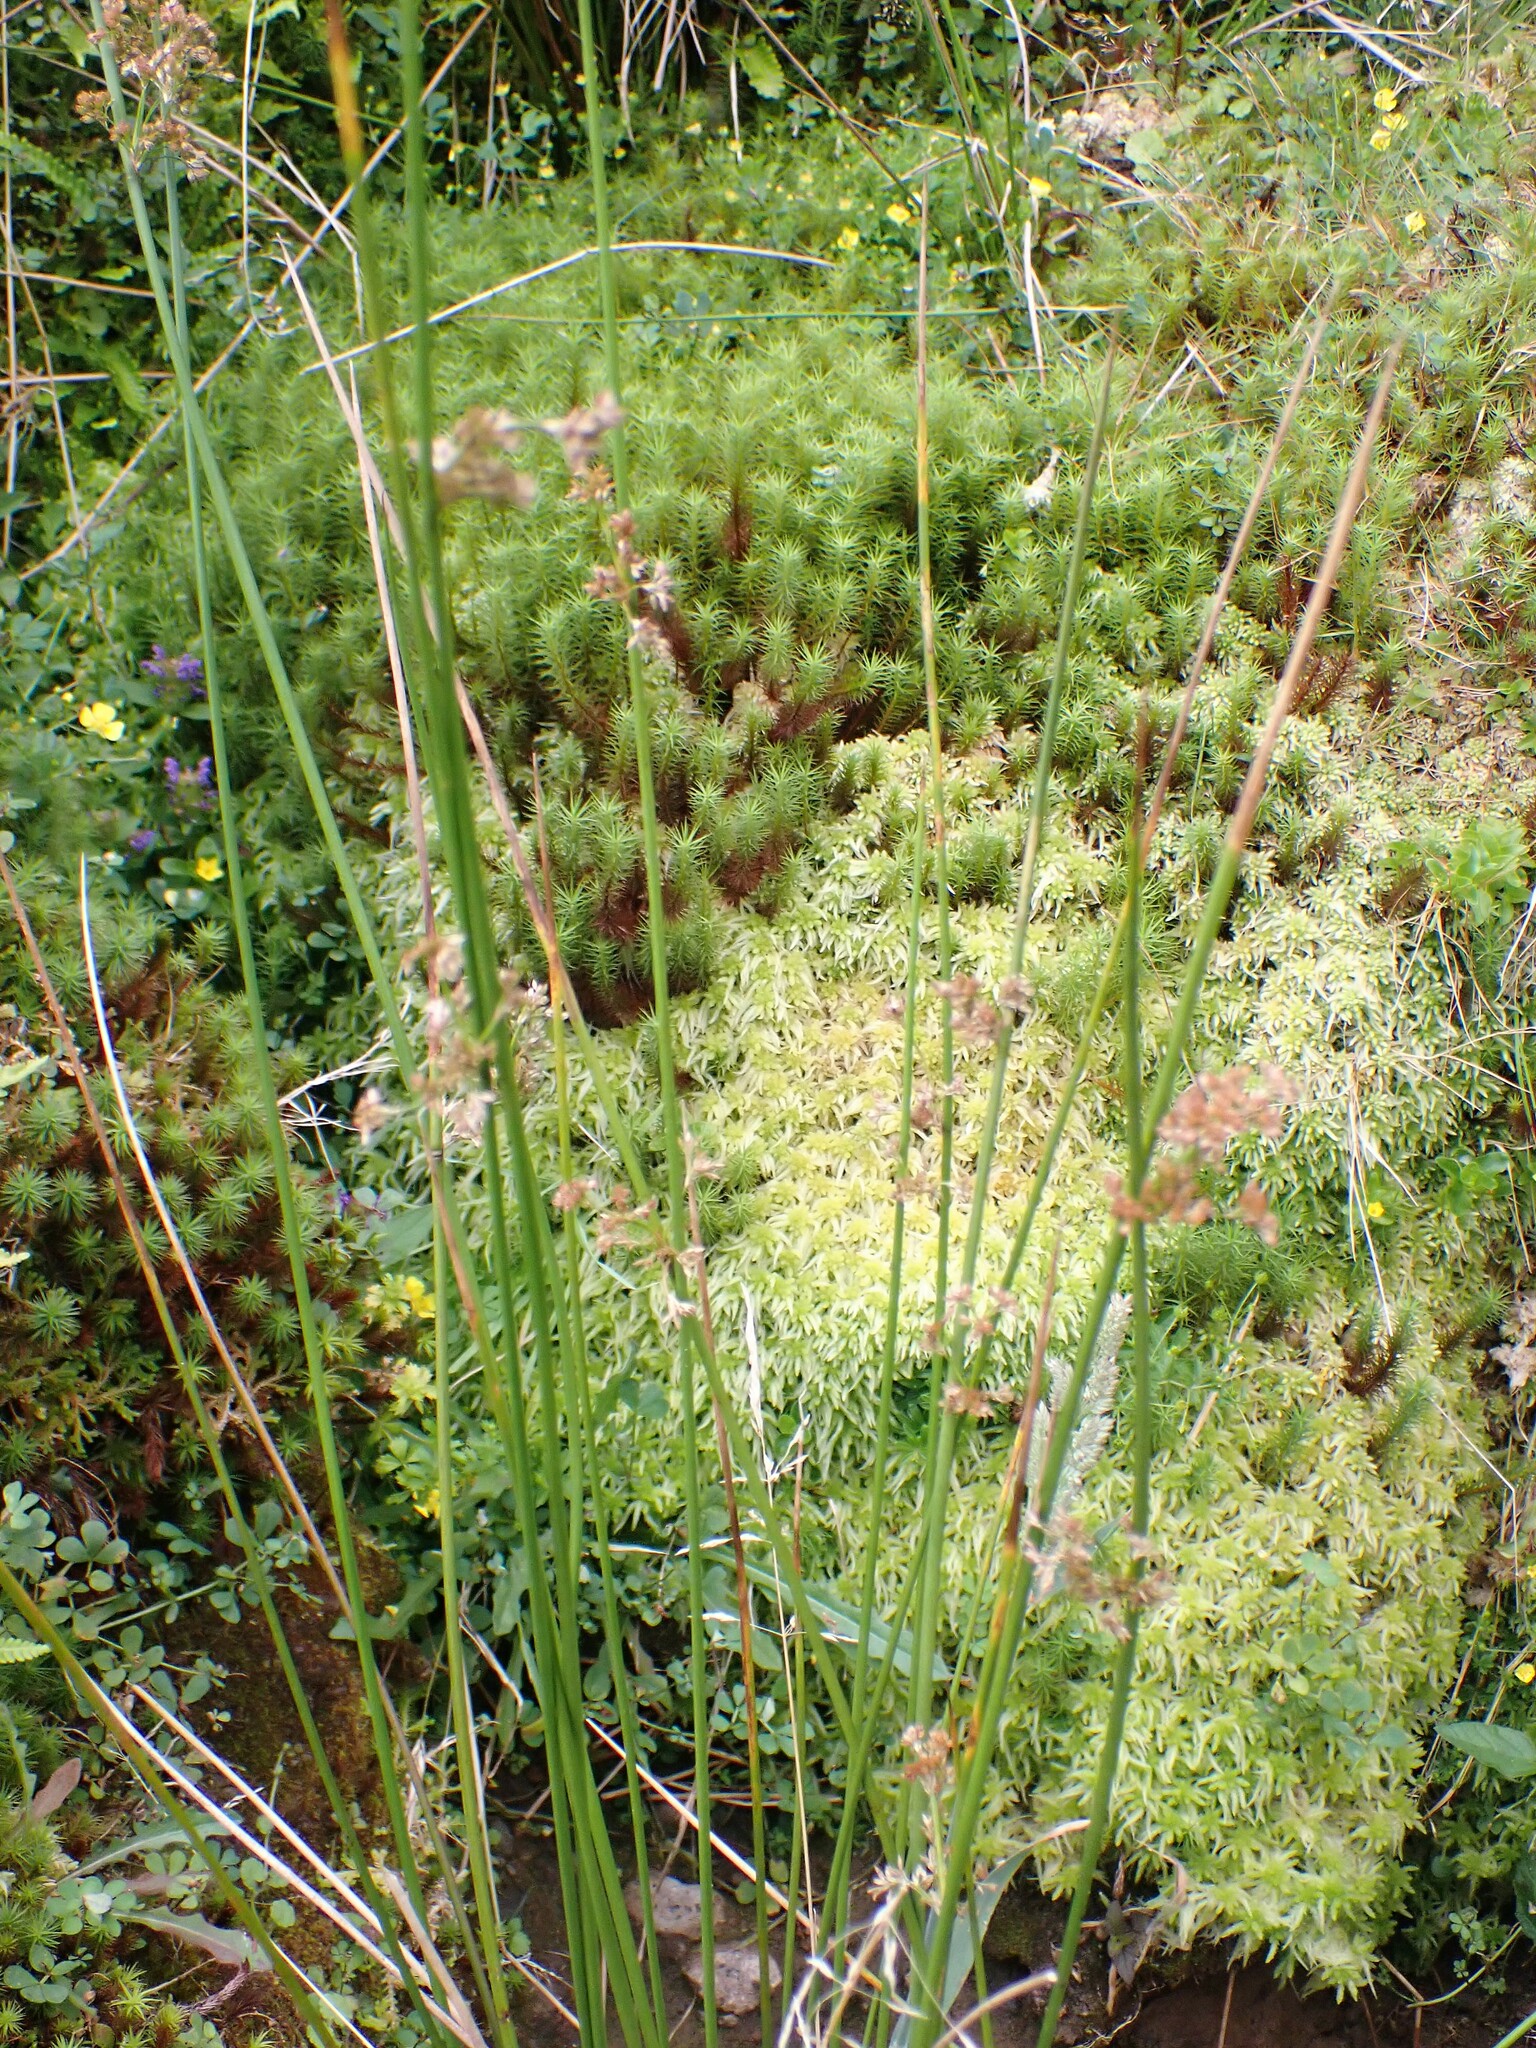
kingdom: Plantae
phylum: Tracheophyta
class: Liliopsida
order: Poales
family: Juncaceae
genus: Juncus
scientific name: Juncus effusus
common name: Soft rush
